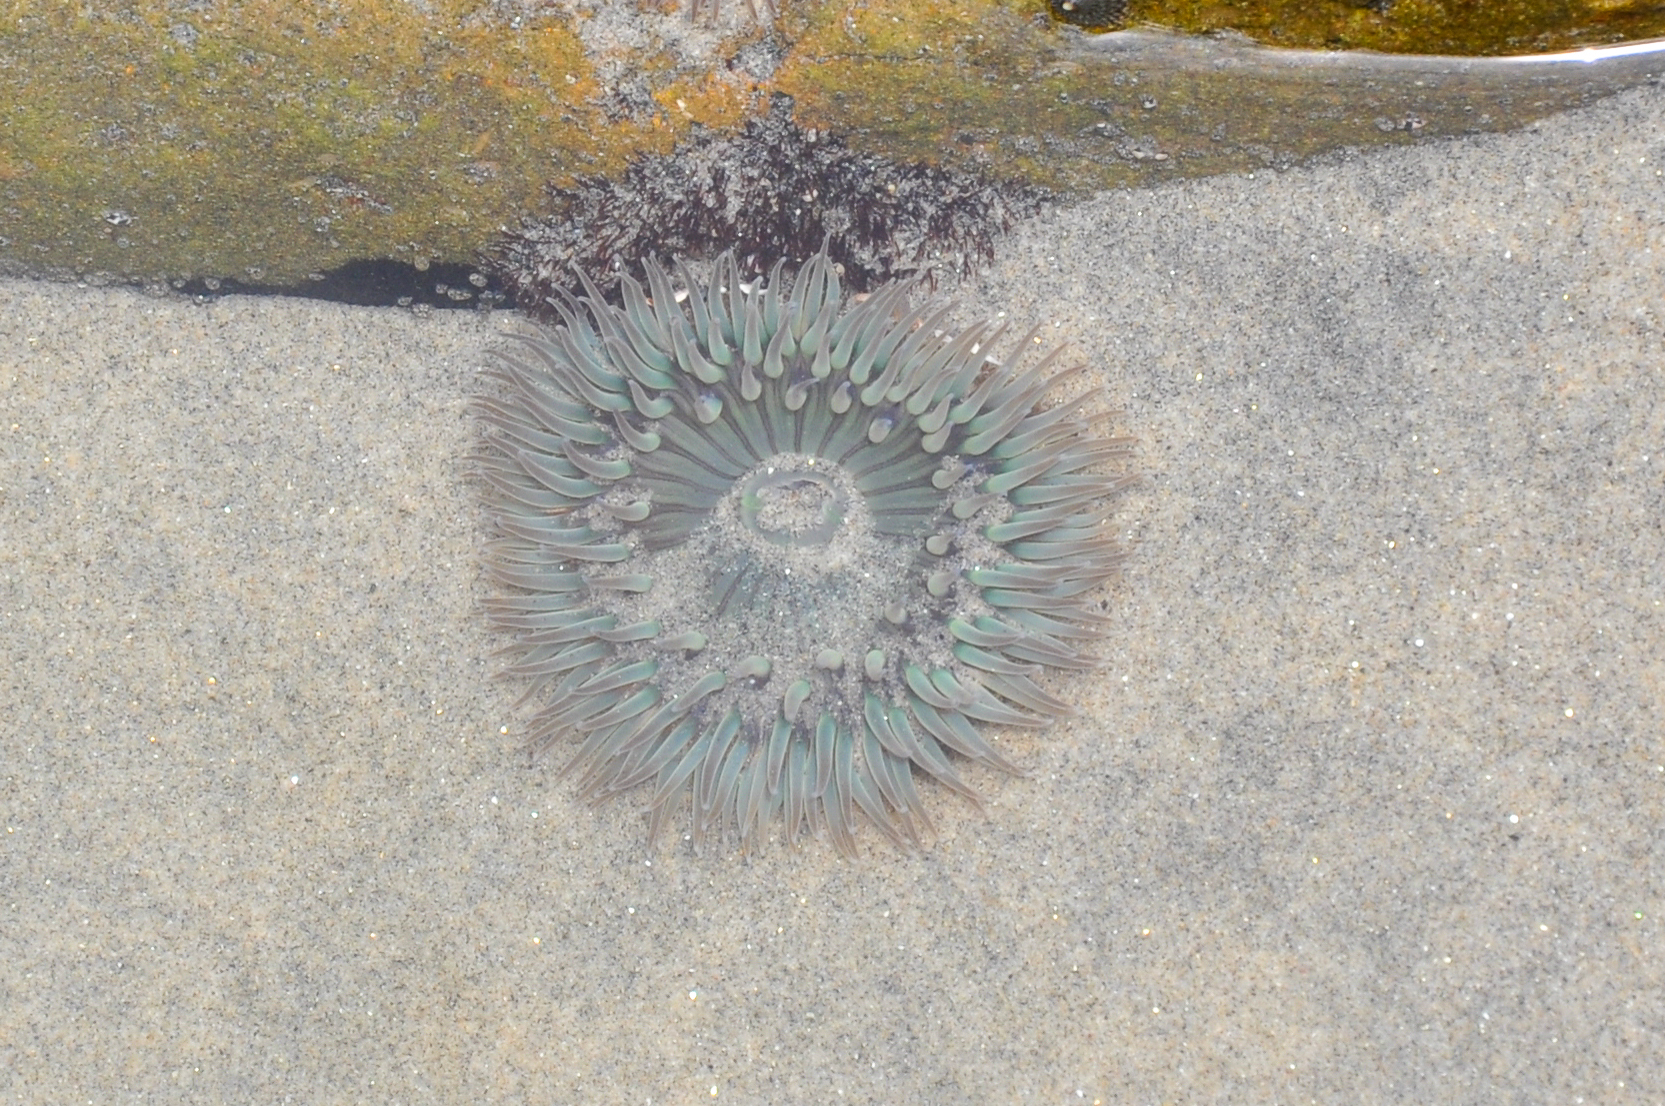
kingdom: Animalia
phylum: Cnidaria
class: Anthozoa
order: Actiniaria
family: Actiniidae
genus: Anthopleura
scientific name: Anthopleura sola
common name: Sun anemone
